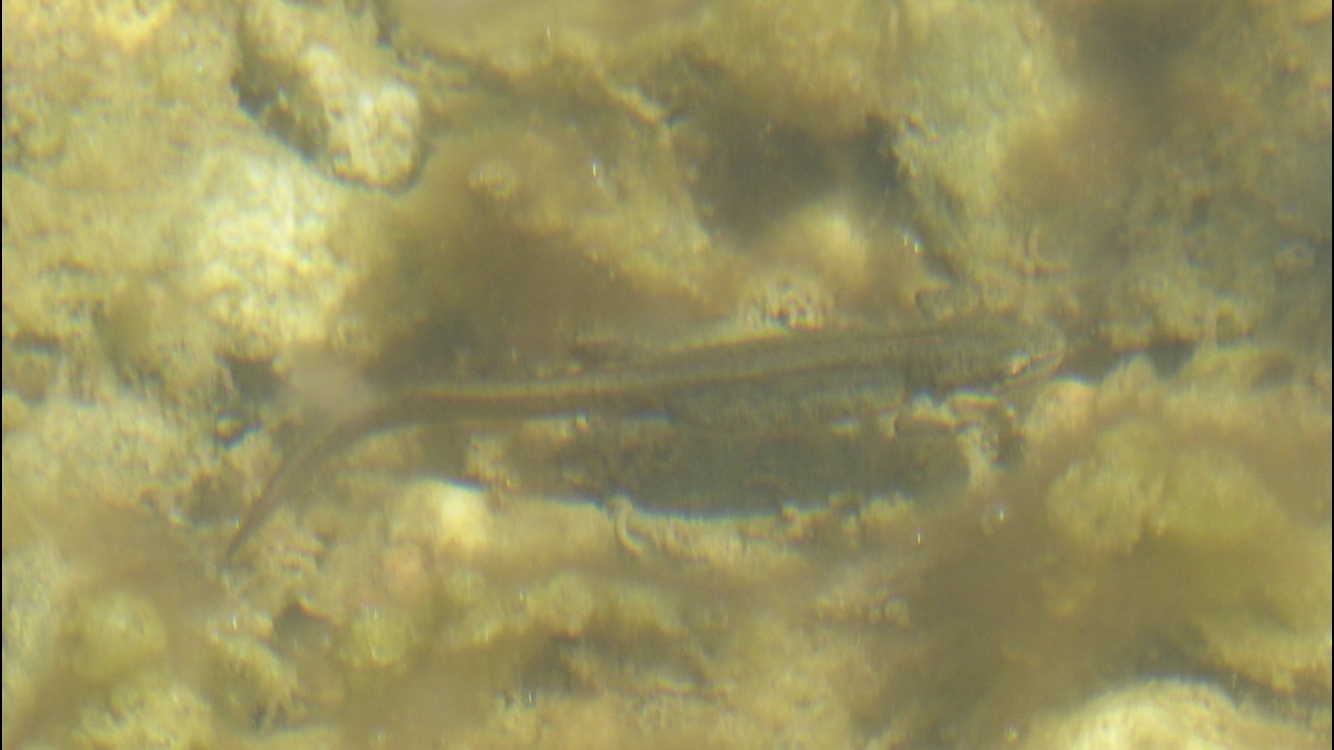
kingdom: Animalia
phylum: Chordata
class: Amphibia
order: Caudata
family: Salamandridae
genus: Lissotriton
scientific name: Lissotriton vulgaris
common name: Smooth newt
